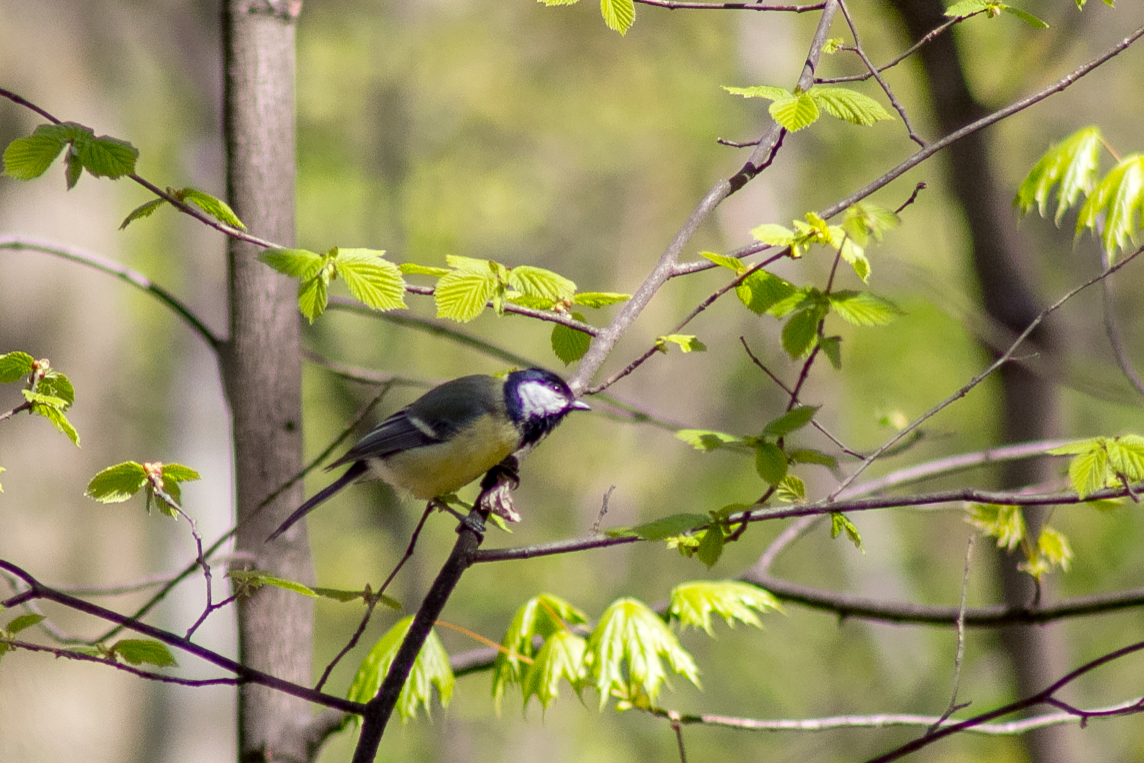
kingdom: Animalia
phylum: Chordata
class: Aves
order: Passeriformes
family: Paridae
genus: Parus
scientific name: Parus major
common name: Great tit
